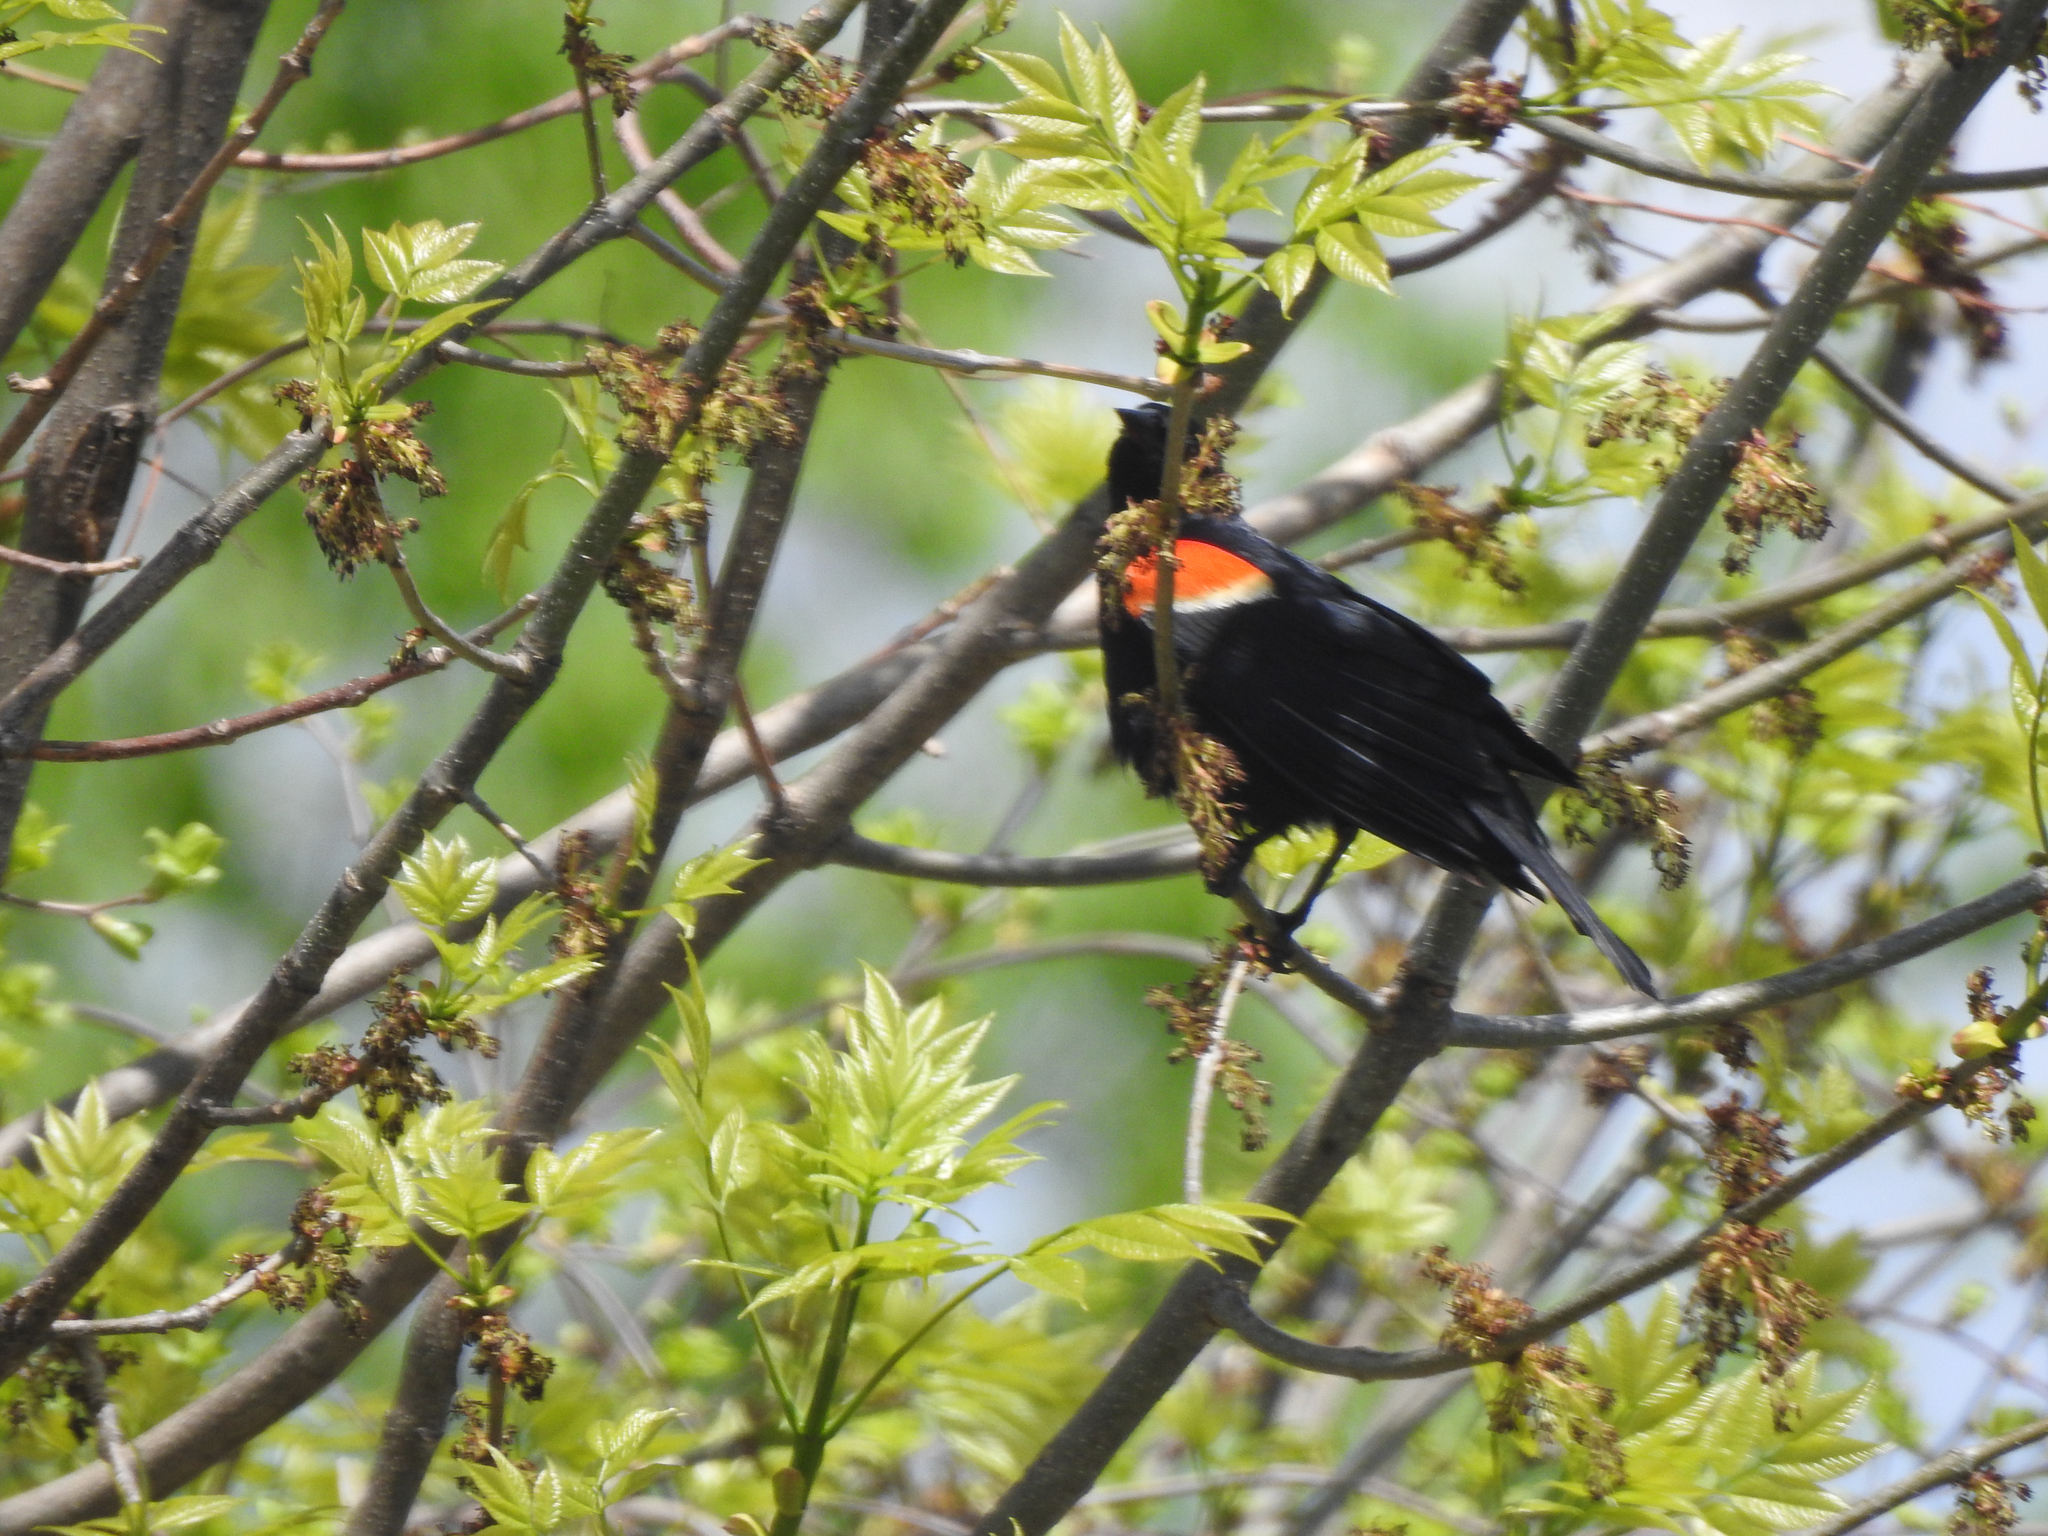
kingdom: Animalia
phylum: Chordata
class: Aves
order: Passeriformes
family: Icteridae
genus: Agelaius
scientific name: Agelaius phoeniceus
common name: Red-winged blackbird
